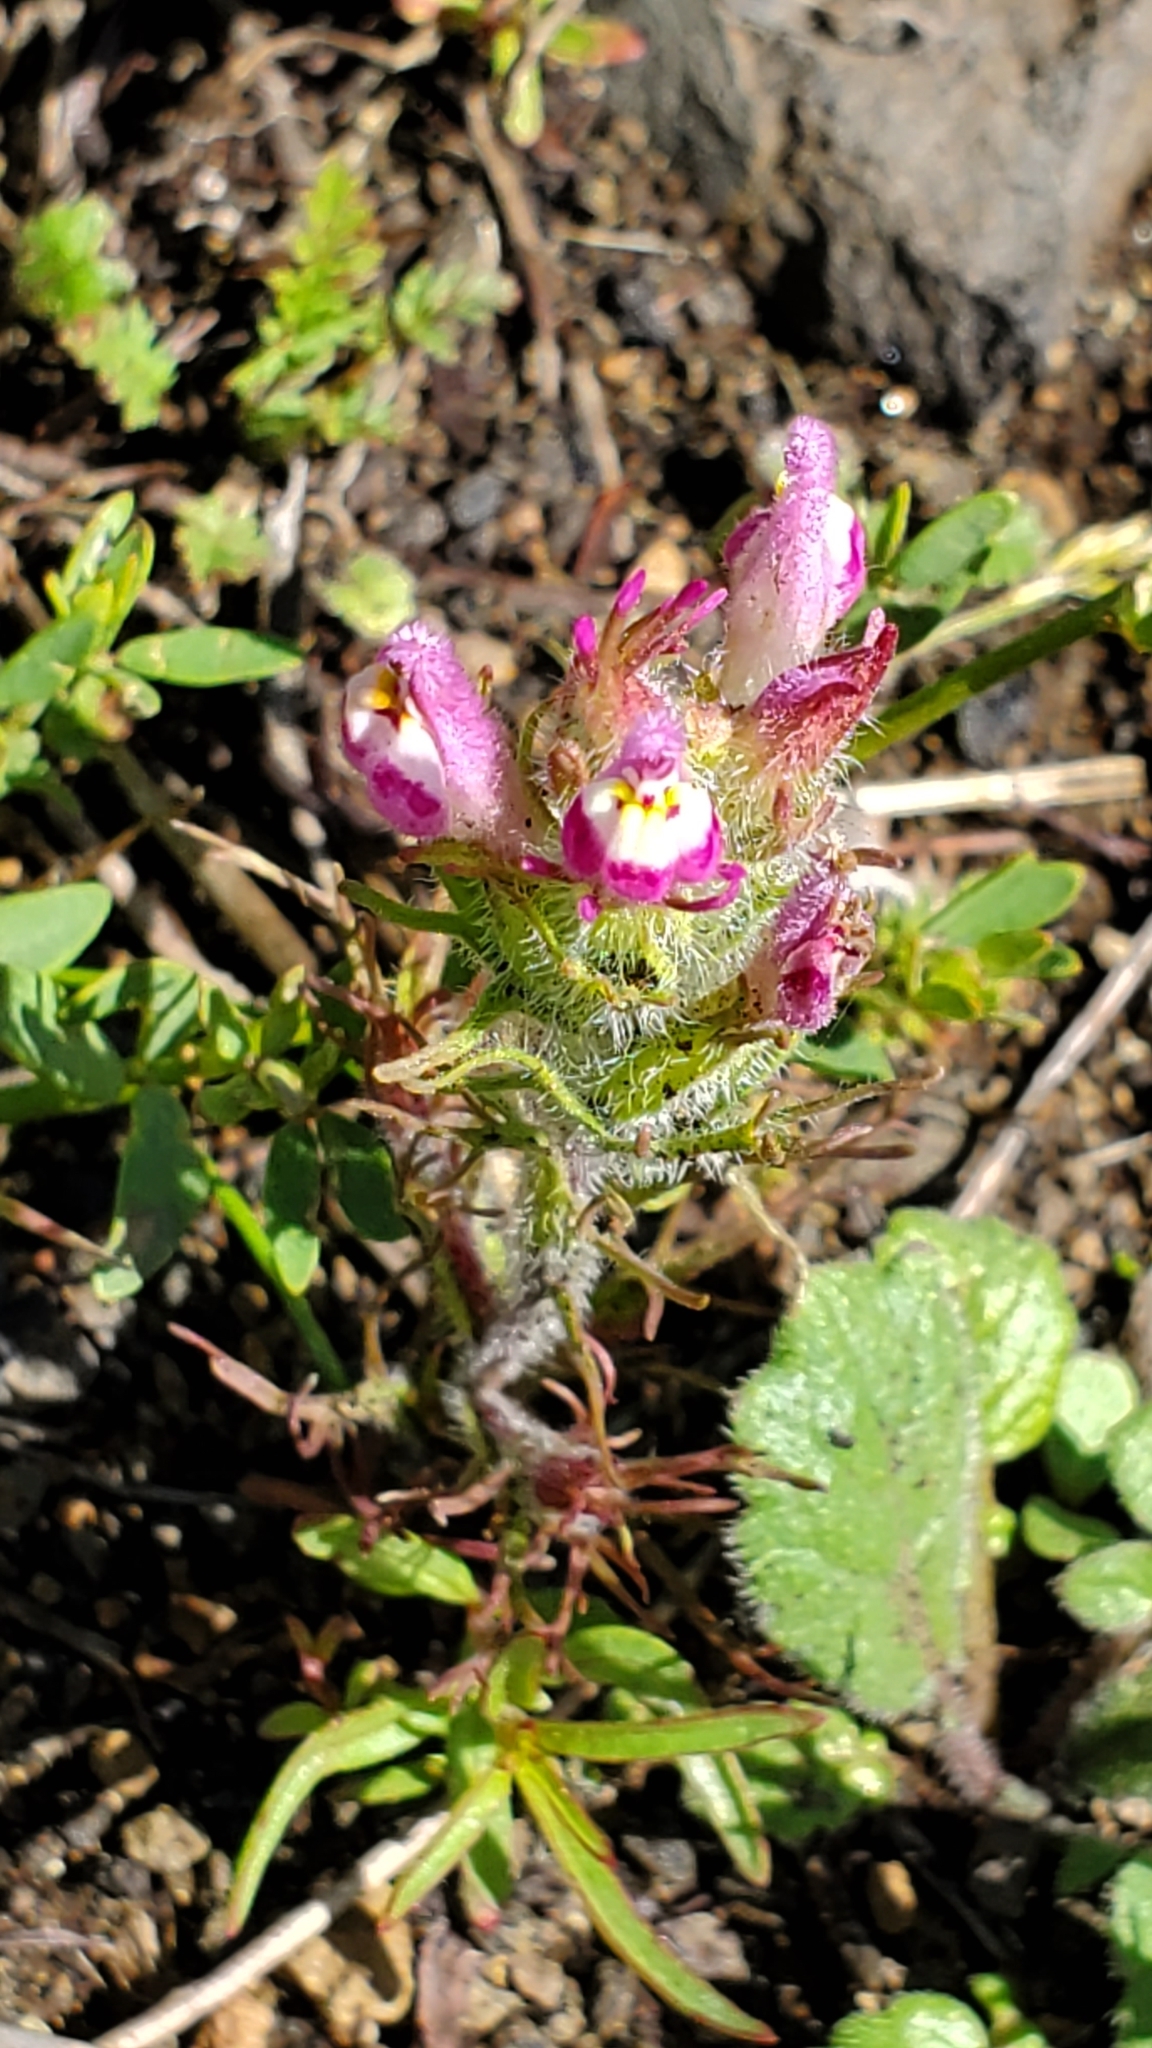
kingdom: Plantae
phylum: Tracheophyta
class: Magnoliopsida
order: Lamiales
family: Orobanchaceae
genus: Castilleja
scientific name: Castilleja exserta
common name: Purple owl-clover
